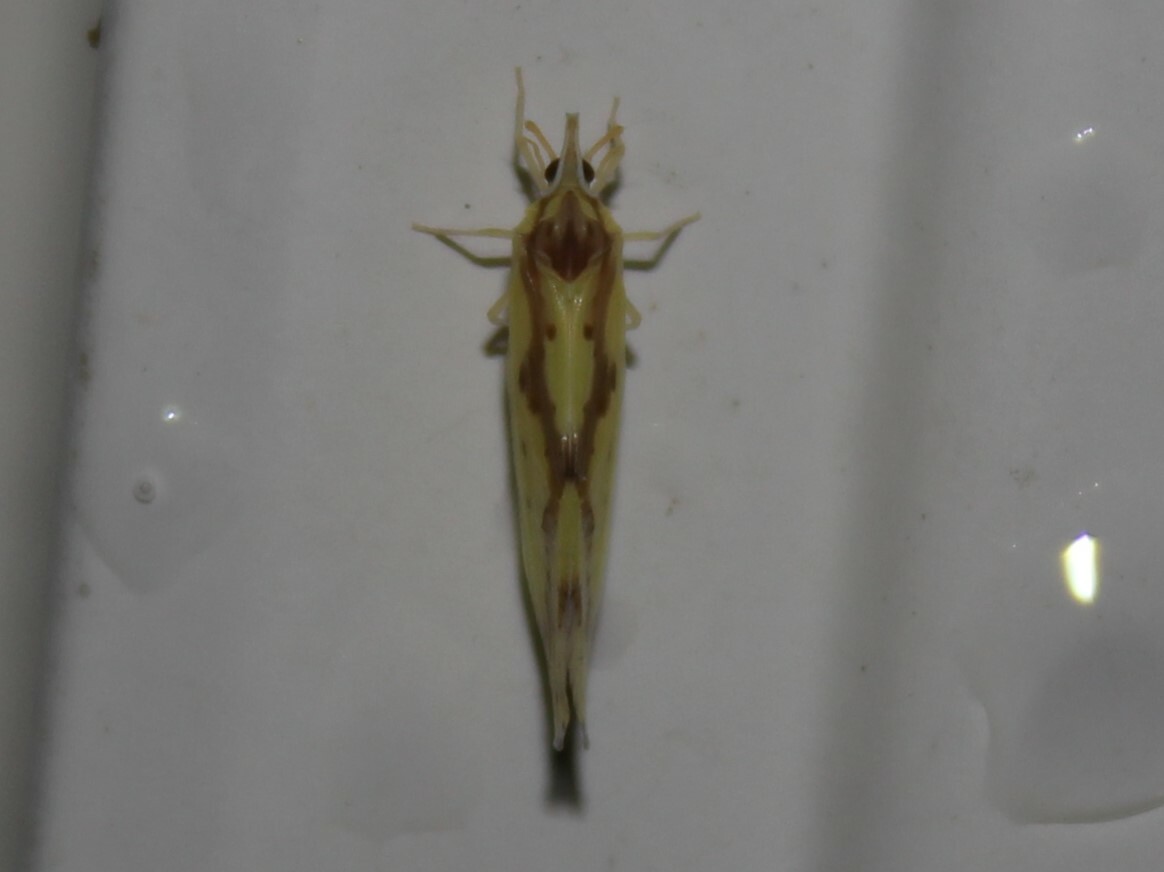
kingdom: Animalia
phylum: Arthropoda
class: Insecta
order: Hemiptera
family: Derbidae
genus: Otiocerus
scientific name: Otiocerus wolfii
